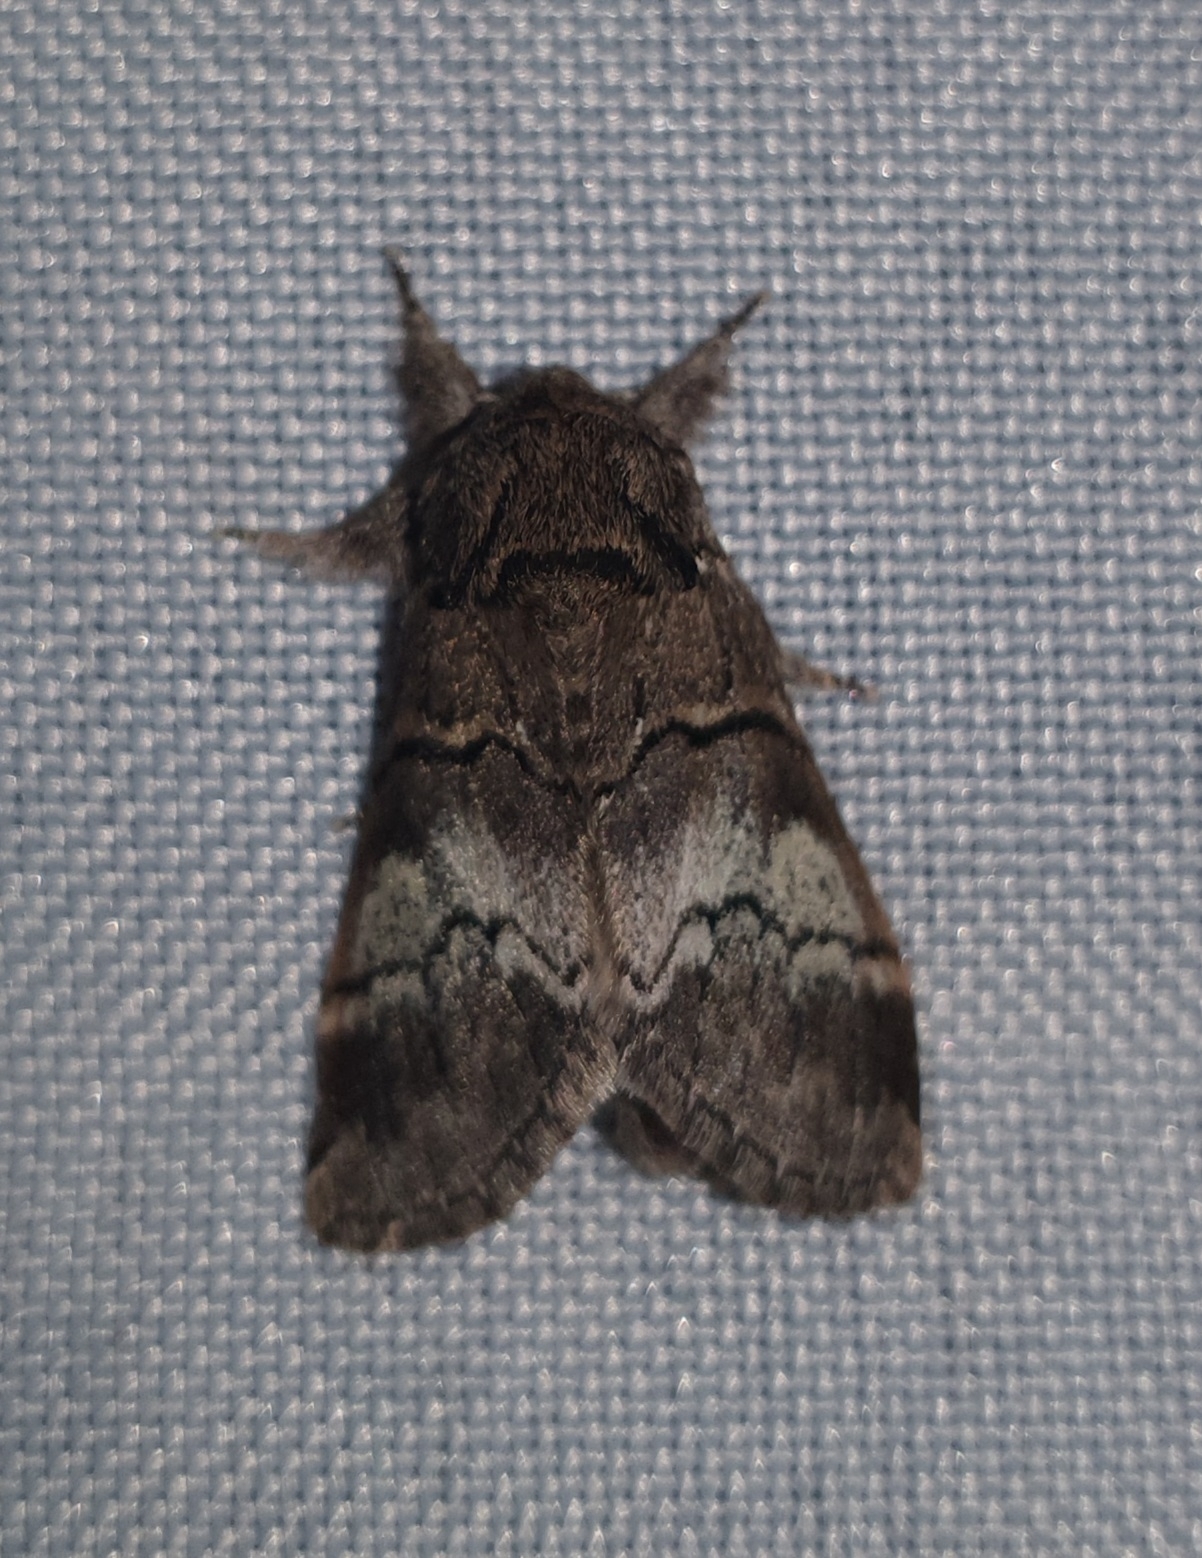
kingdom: Animalia
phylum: Arthropoda
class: Insecta
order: Lepidoptera
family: Notodontidae
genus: Drymonia
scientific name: Drymonia querna
